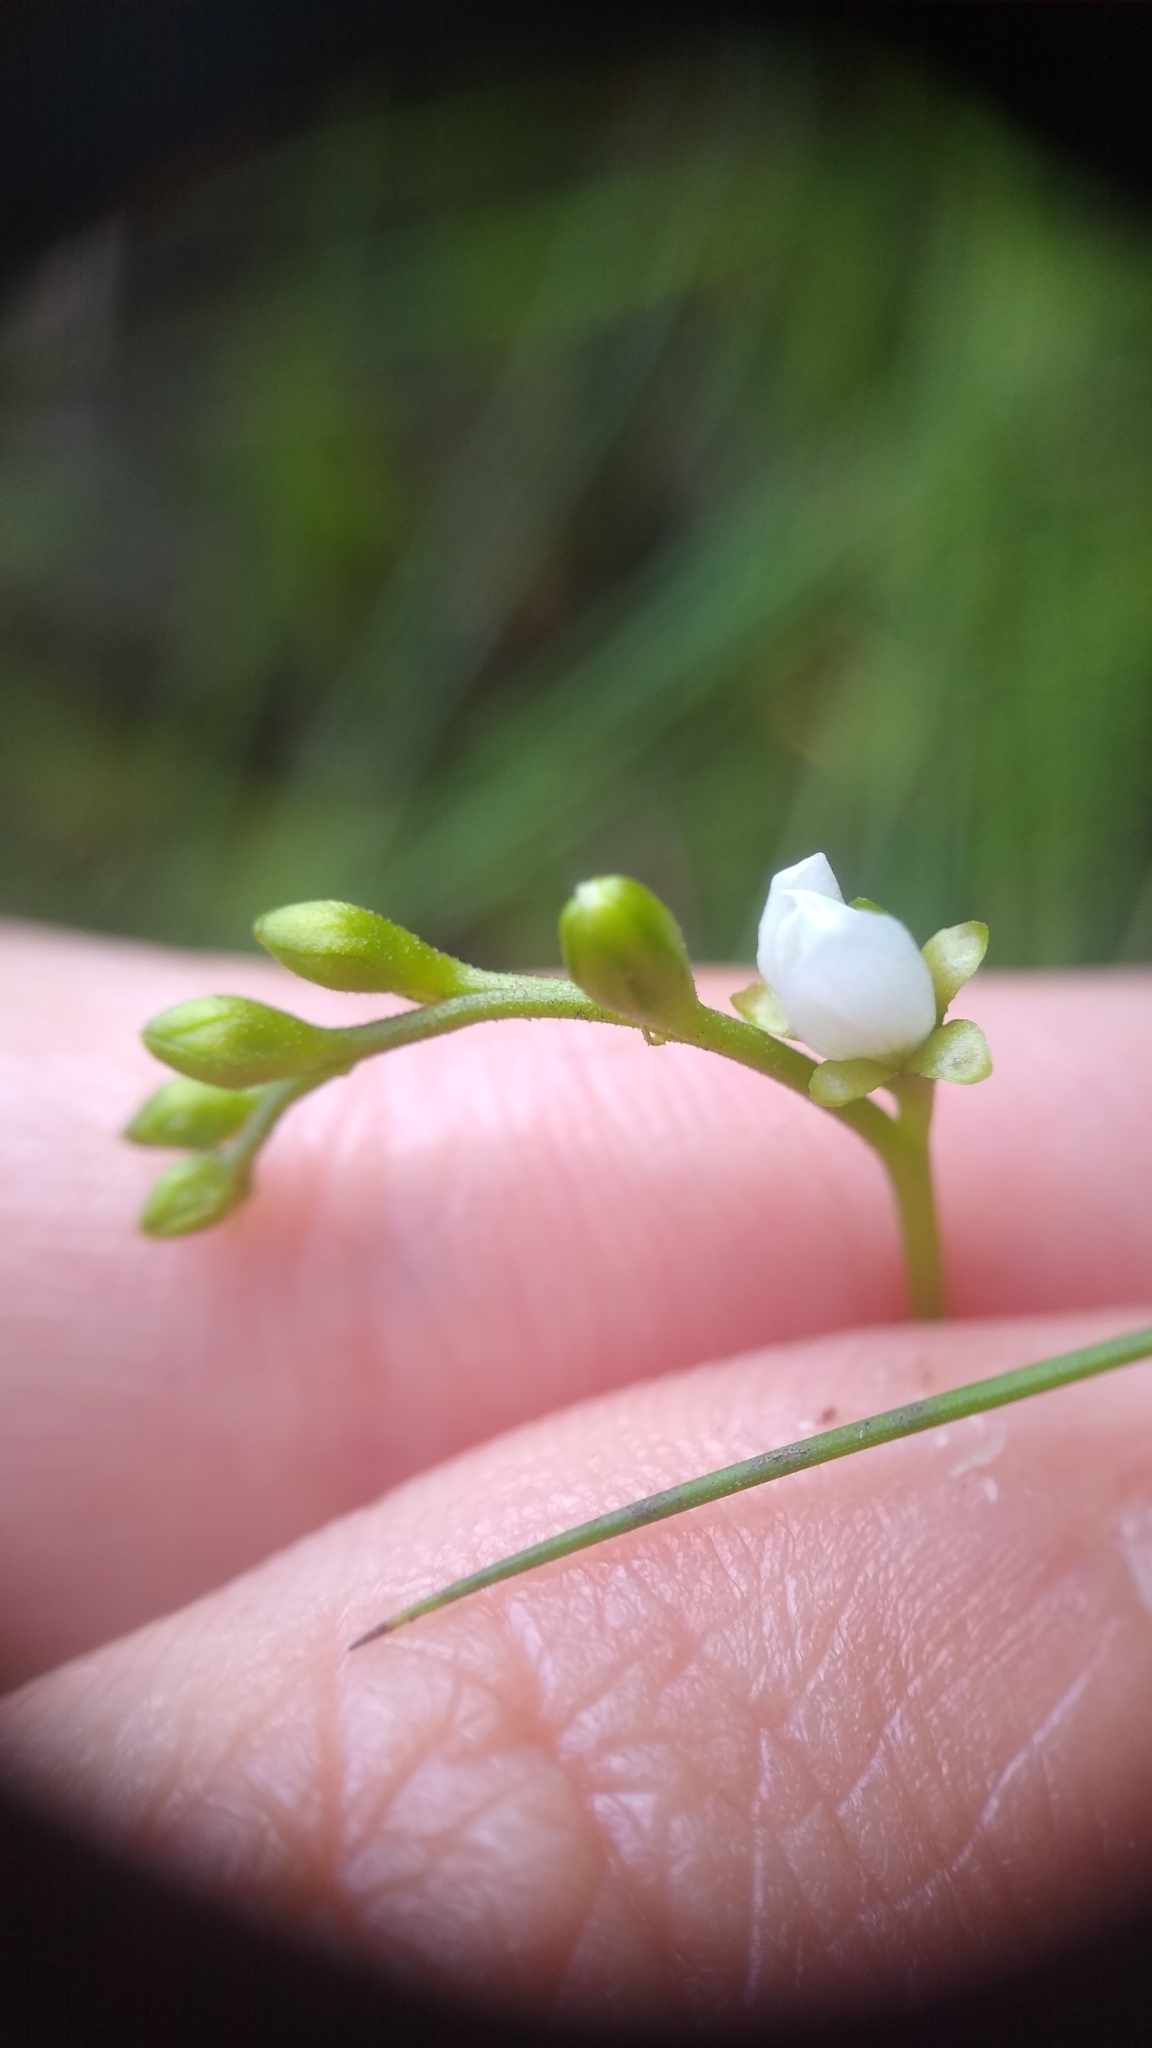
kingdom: Plantae
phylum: Tracheophyta
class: Magnoliopsida
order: Caryophyllales
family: Droseraceae
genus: Drosera
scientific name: Drosera intermedia
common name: Oblong-leaved sundew
